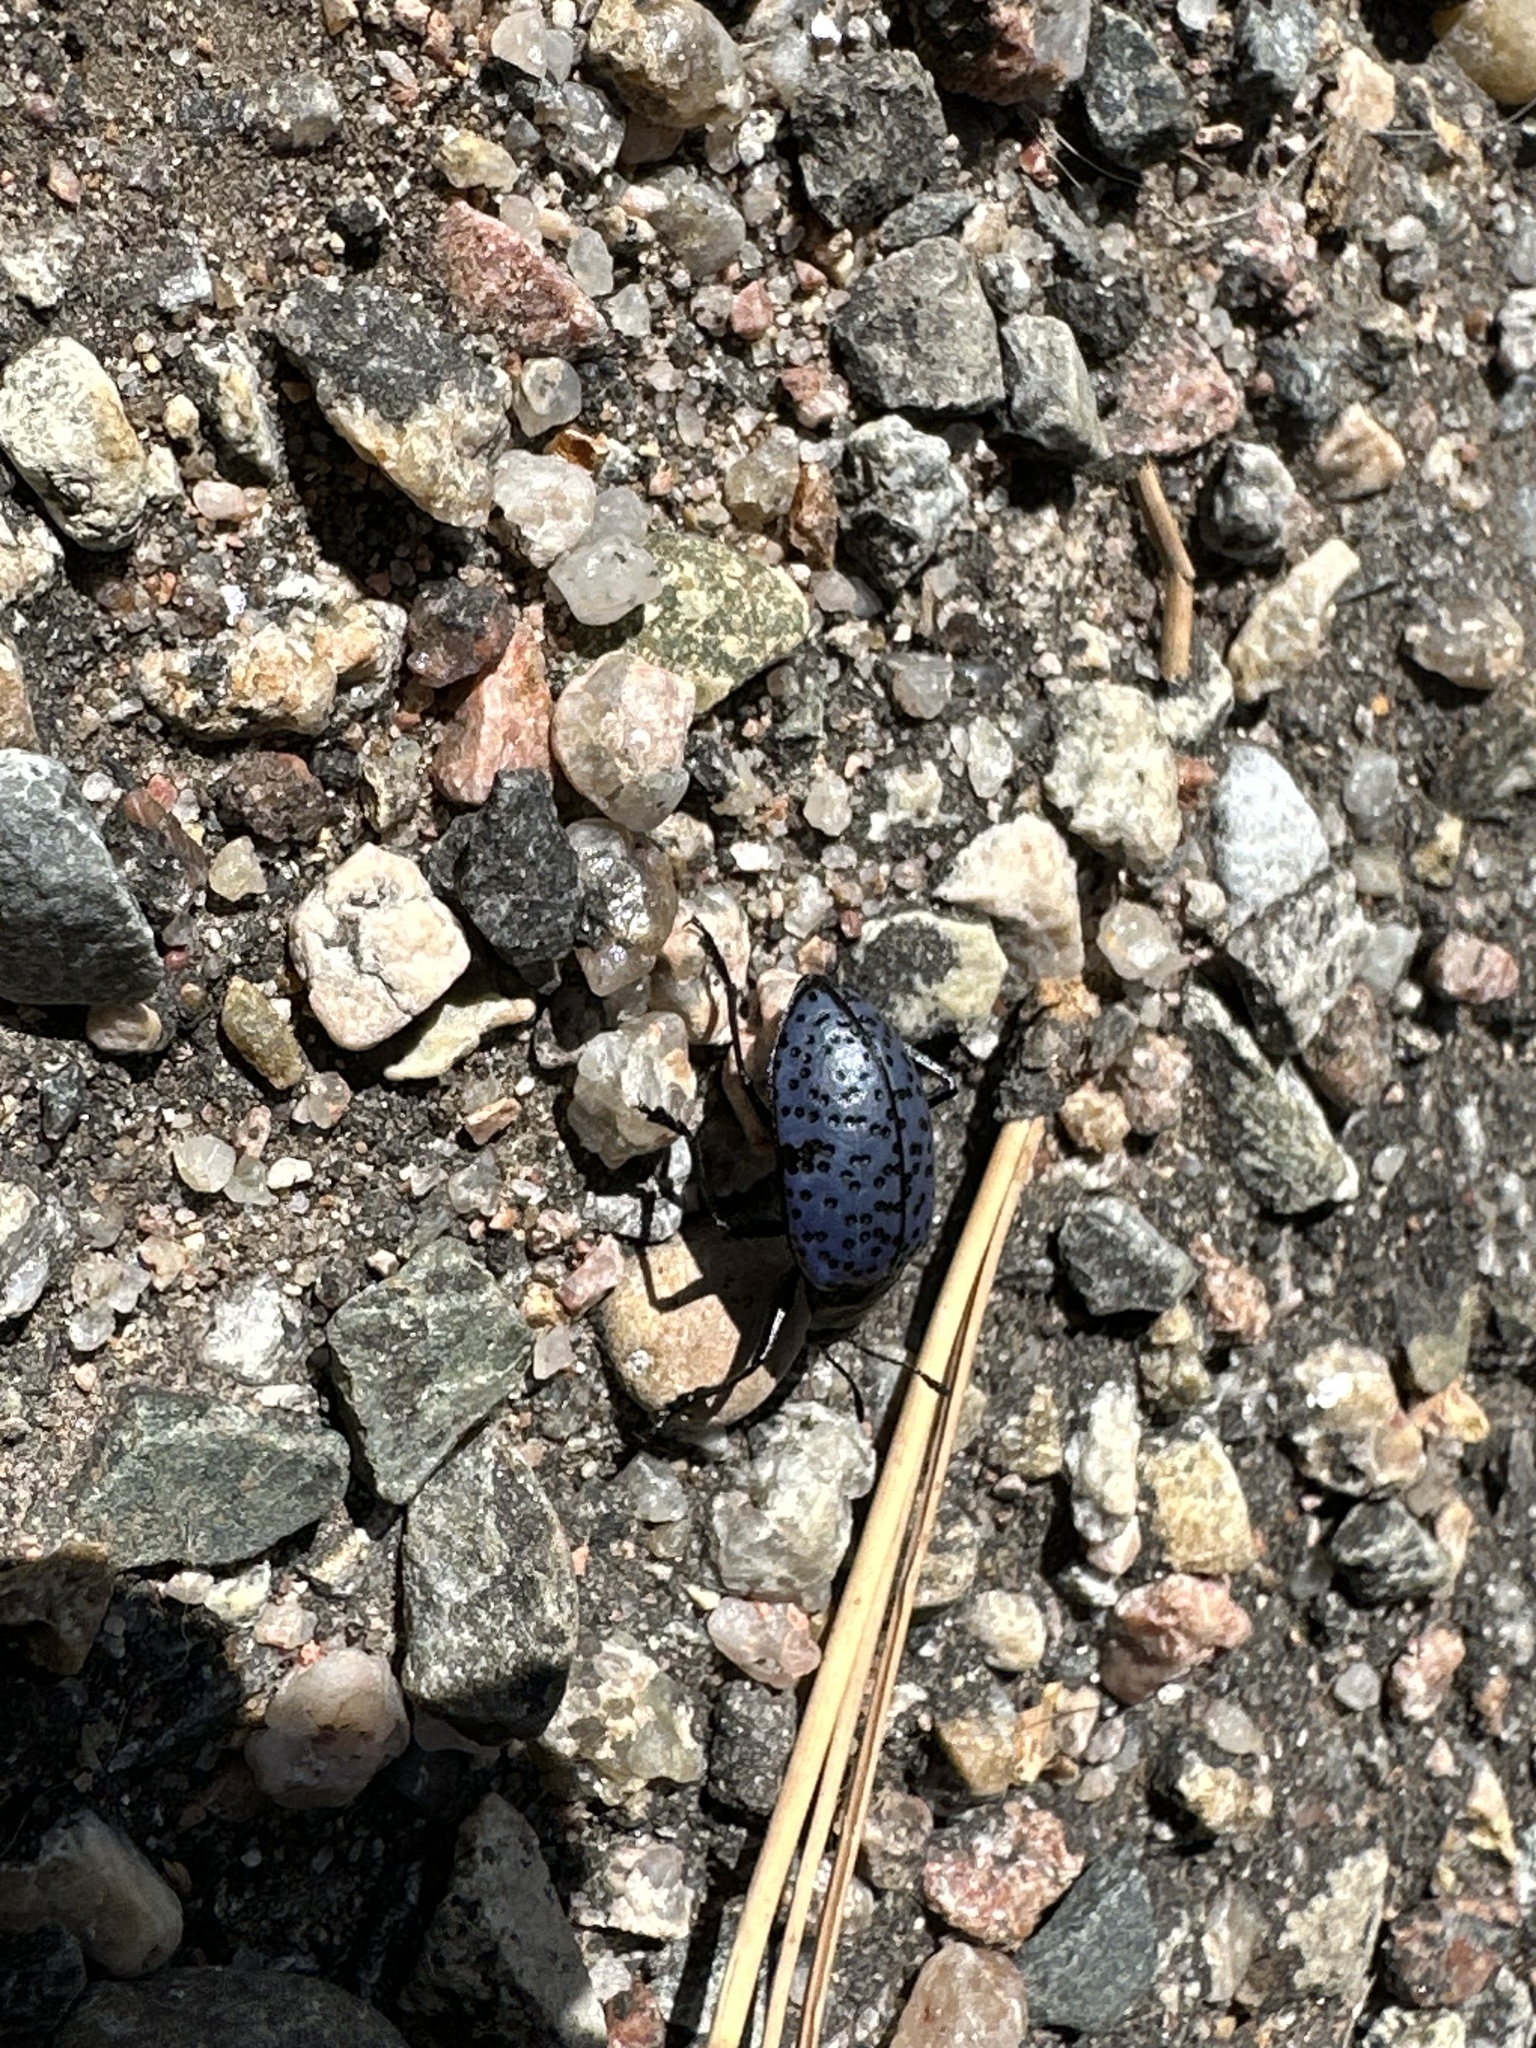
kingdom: Animalia
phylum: Arthropoda
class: Insecta
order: Coleoptera
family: Erotylidae
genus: Gibbifer
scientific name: Gibbifer californicus
